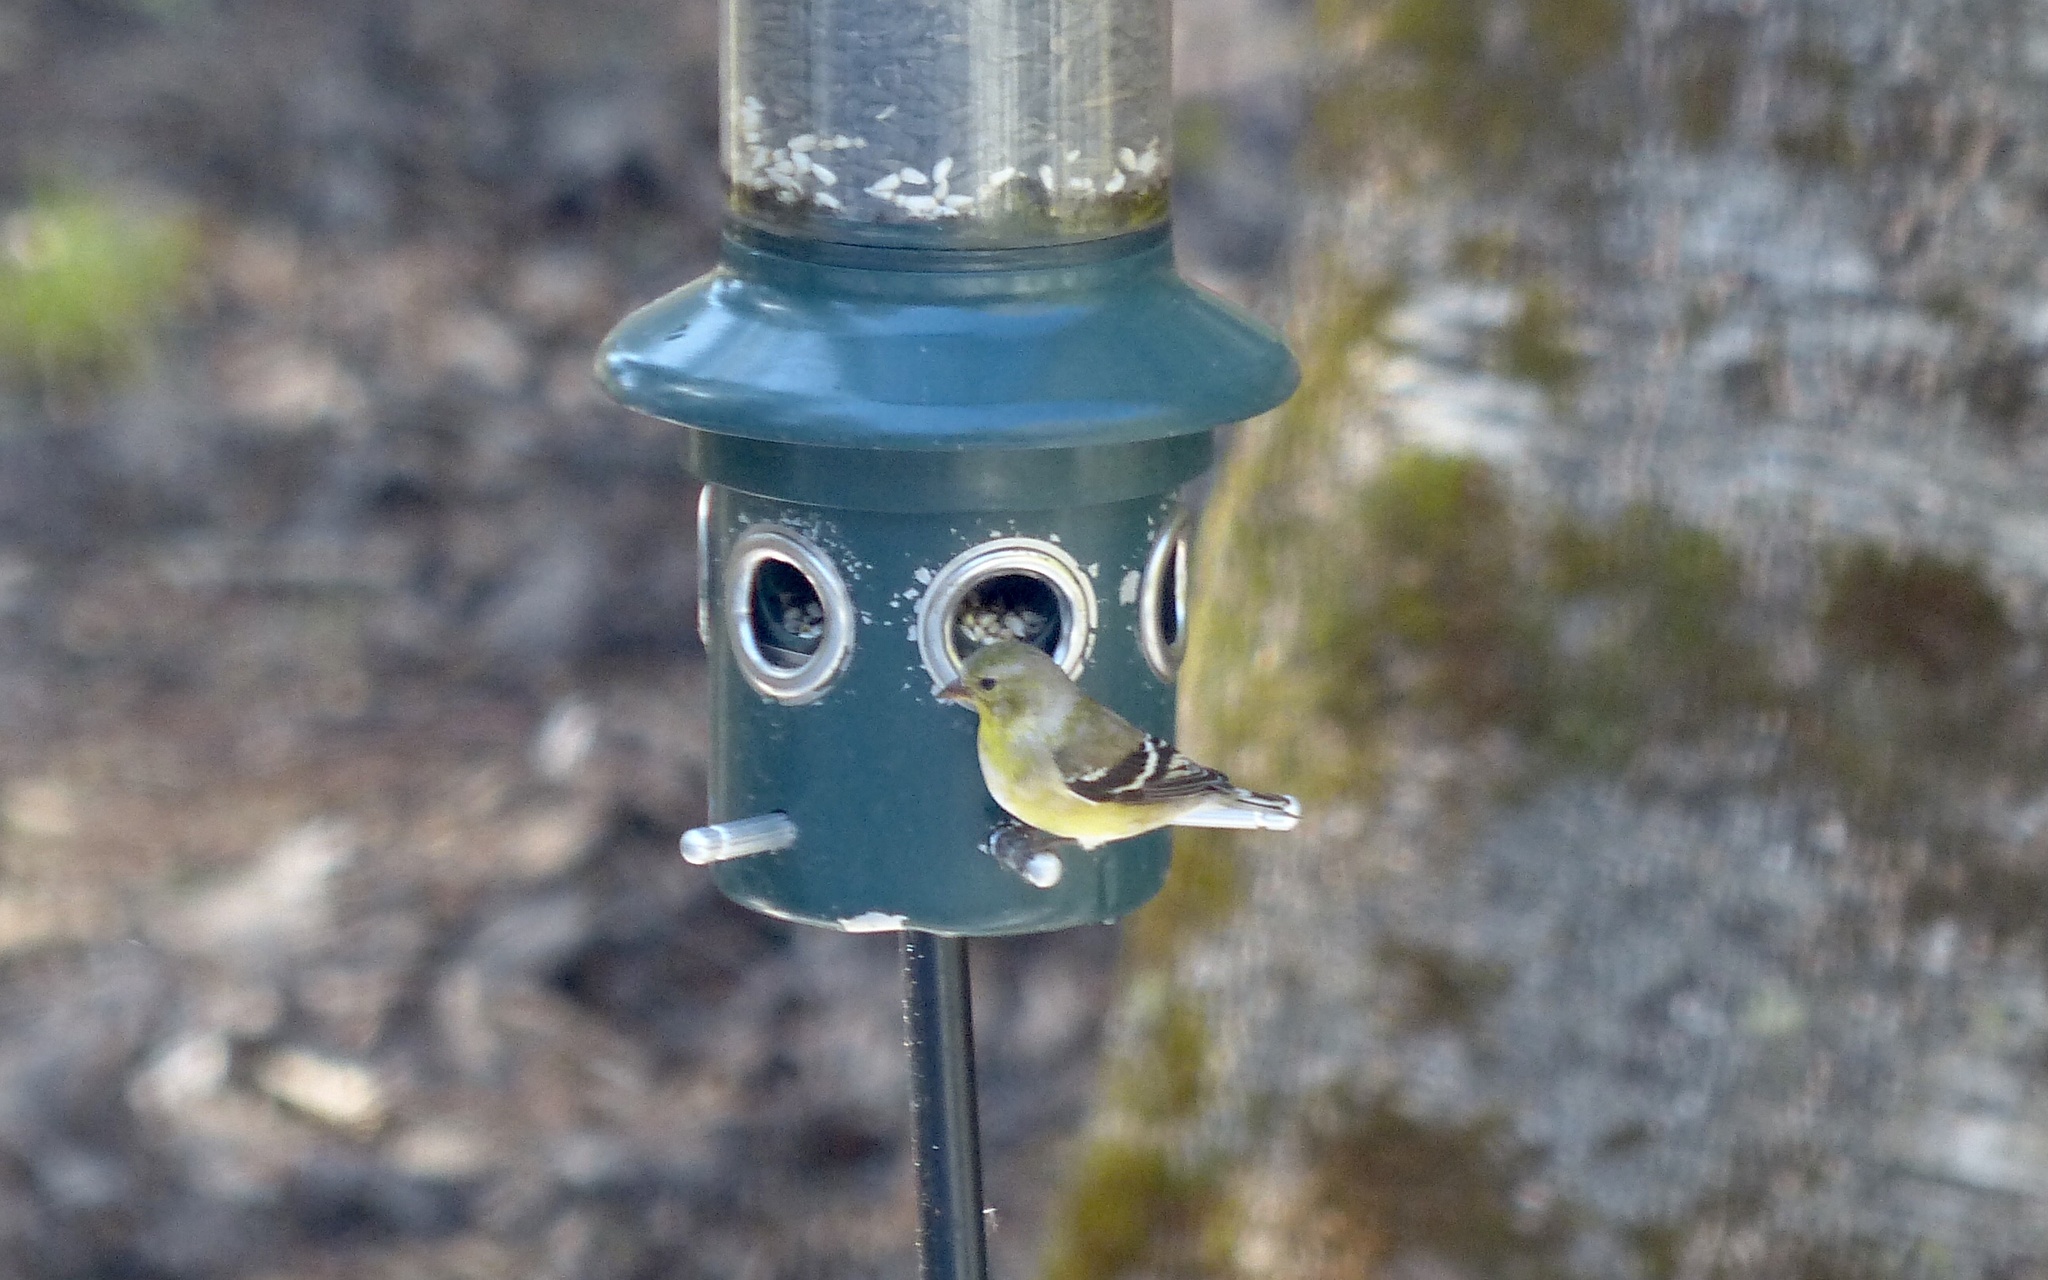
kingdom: Animalia
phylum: Chordata
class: Aves
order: Passeriformes
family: Fringillidae
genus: Spinus
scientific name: Spinus tristis
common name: American goldfinch
